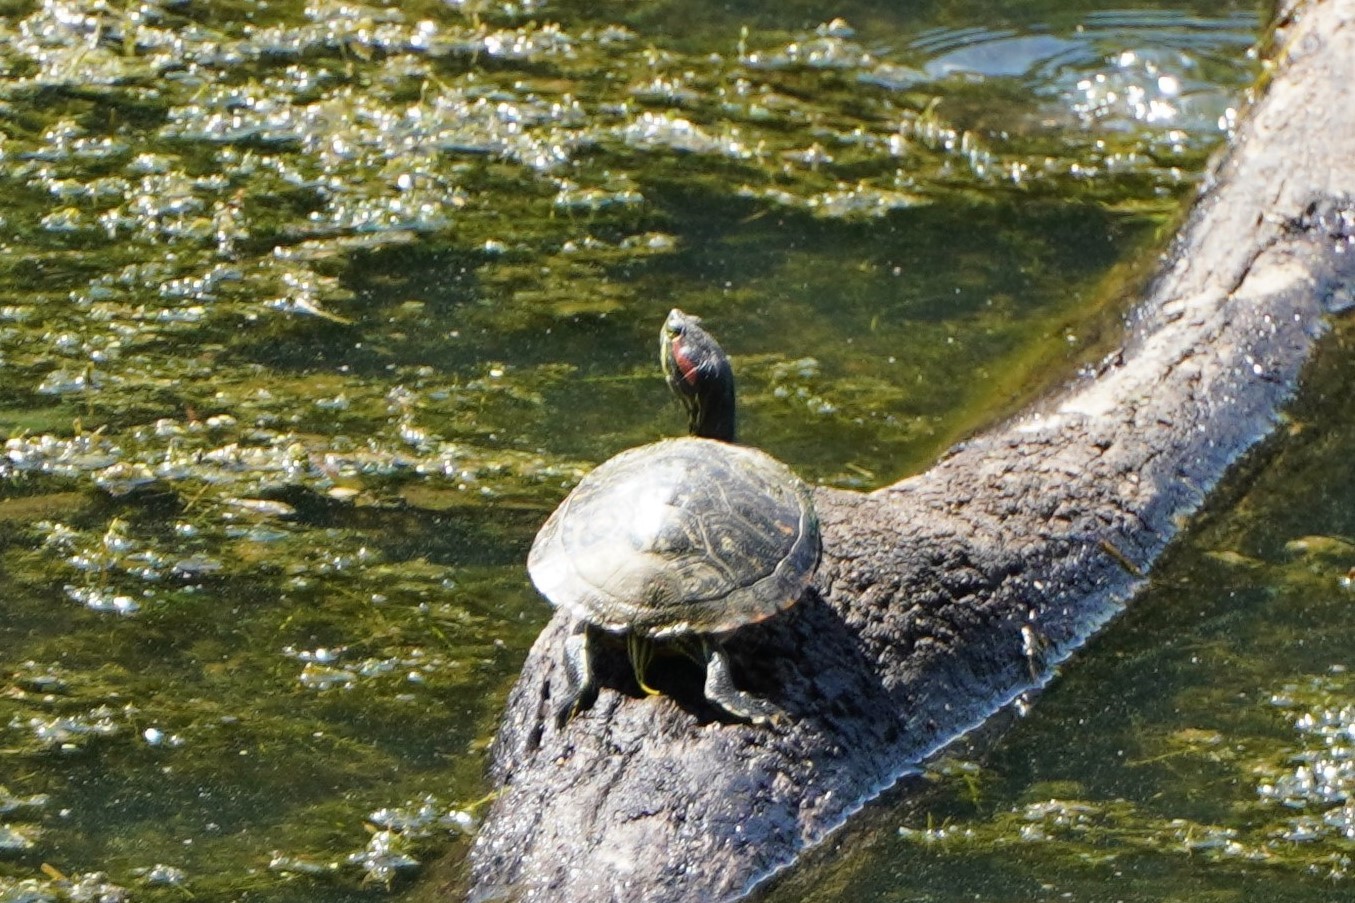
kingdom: Animalia
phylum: Chordata
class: Testudines
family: Emydidae
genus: Trachemys
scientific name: Trachemys scripta
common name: Slider
